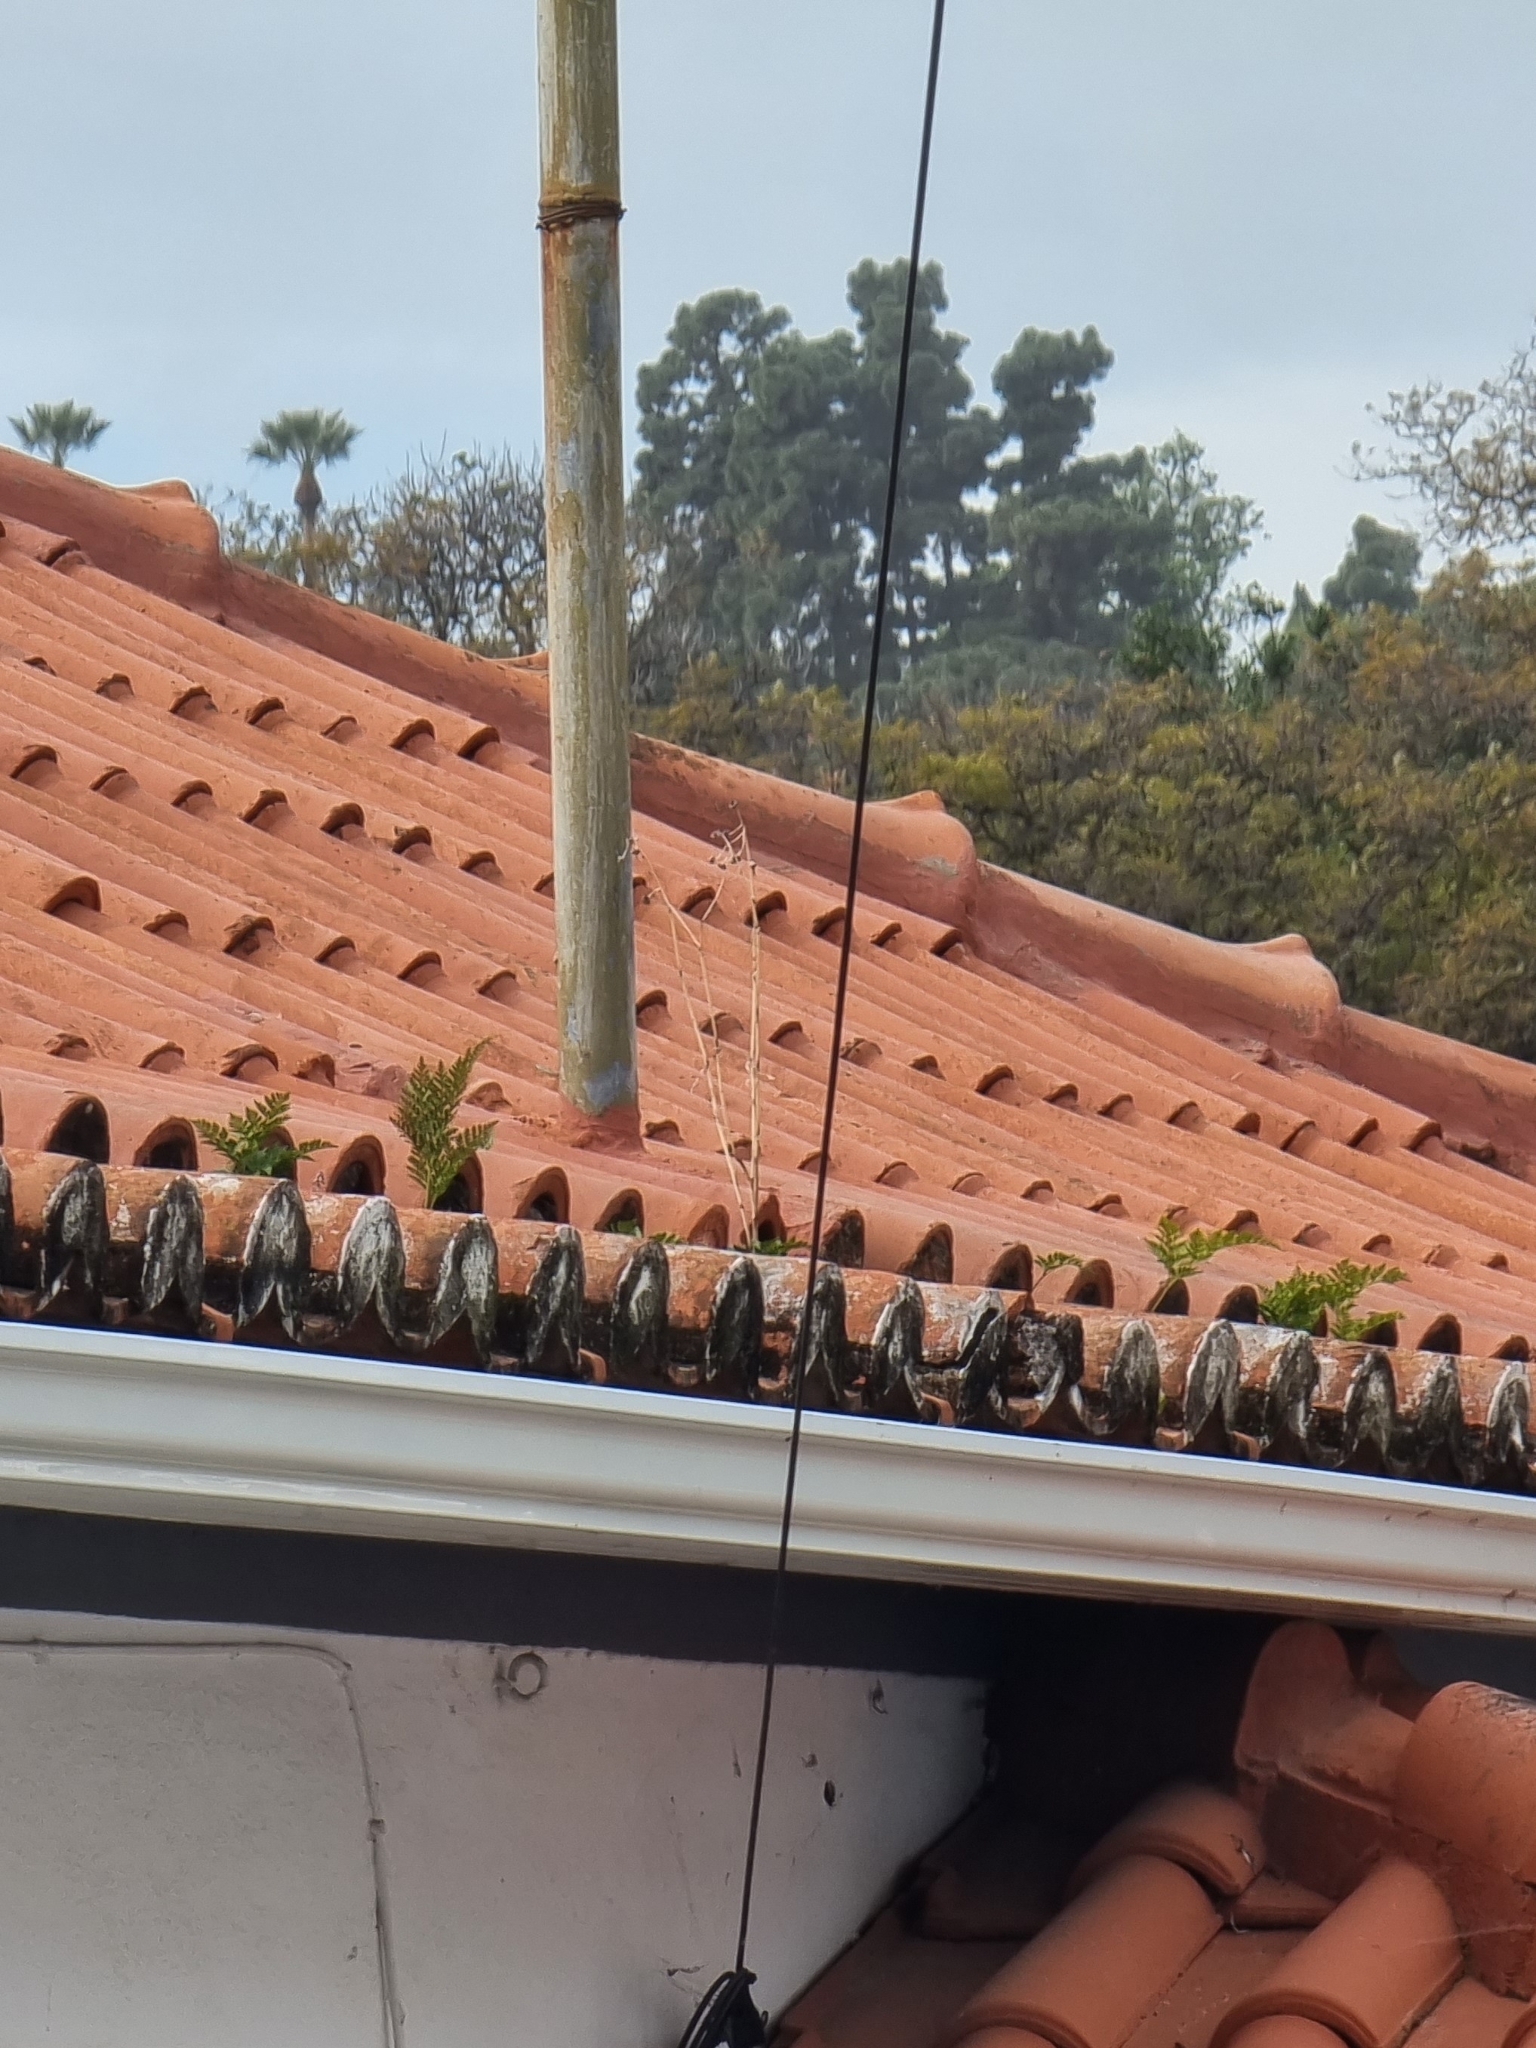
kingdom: Plantae
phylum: Tracheophyta
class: Polypodiopsida
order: Polypodiales
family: Davalliaceae
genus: Davallia
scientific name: Davallia canariensis
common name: Hare's-foot fern
